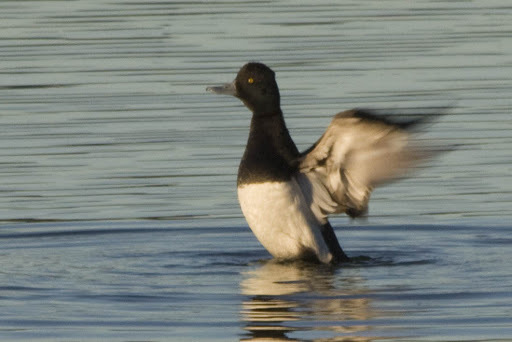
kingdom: Animalia
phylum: Chordata
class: Aves
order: Anseriformes
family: Anatidae
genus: Aythya
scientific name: Aythya affinis
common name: Lesser scaup
